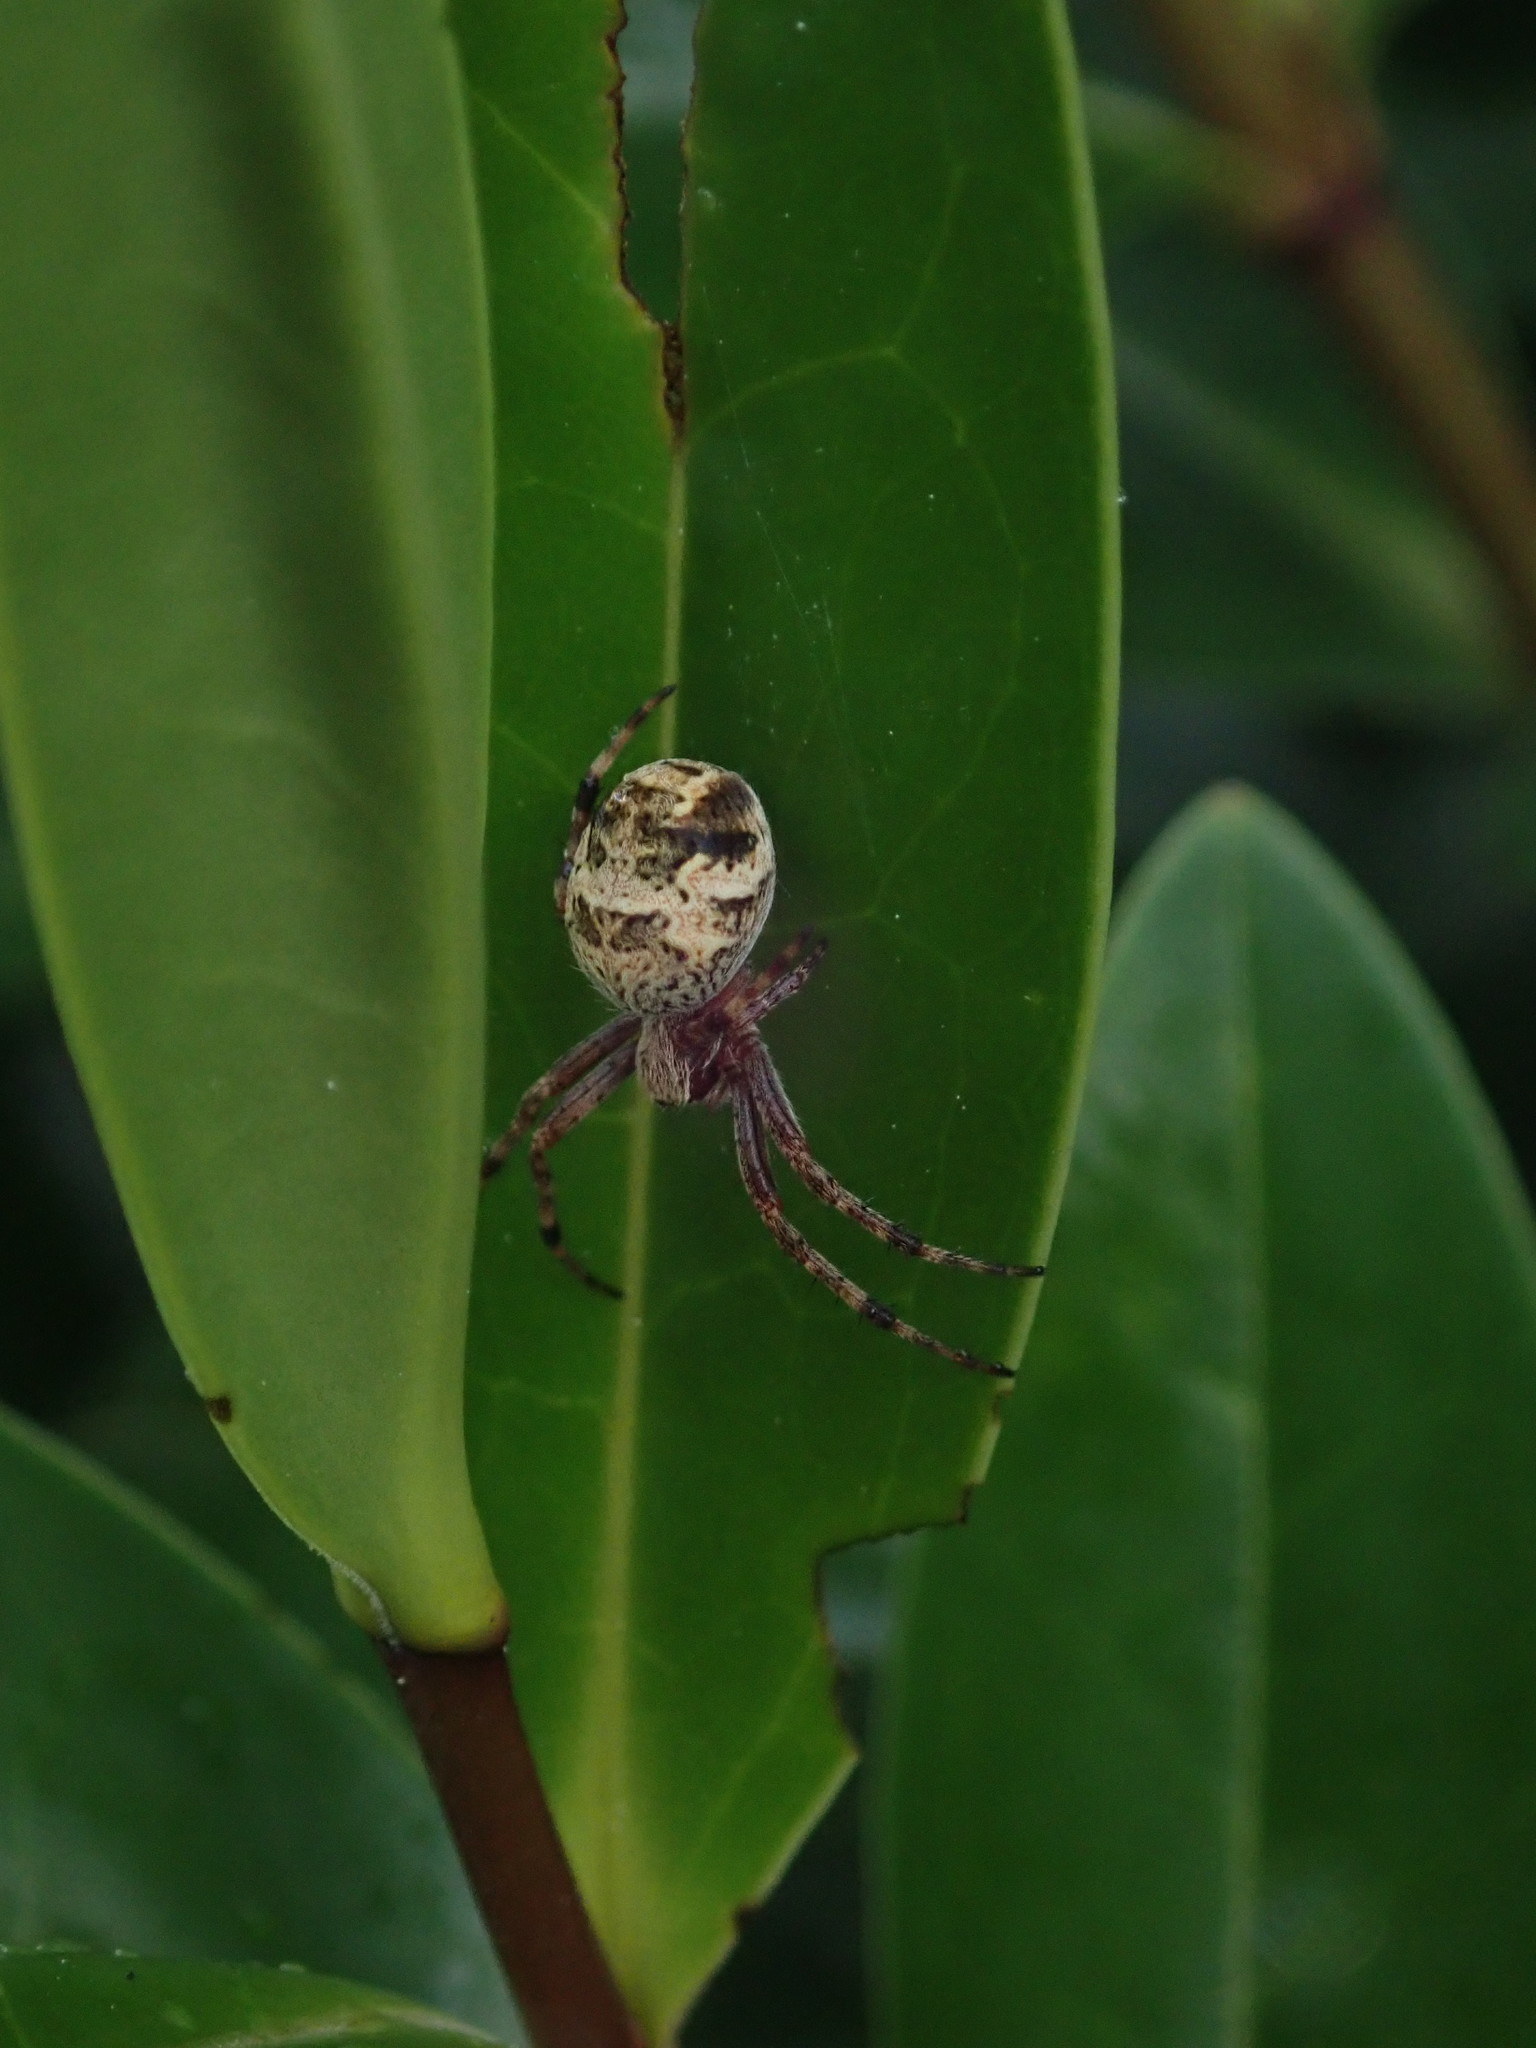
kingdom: Animalia
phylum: Arthropoda
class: Arachnida
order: Araneae
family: Araneidae
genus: Salsa
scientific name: Salsa fuliginata
